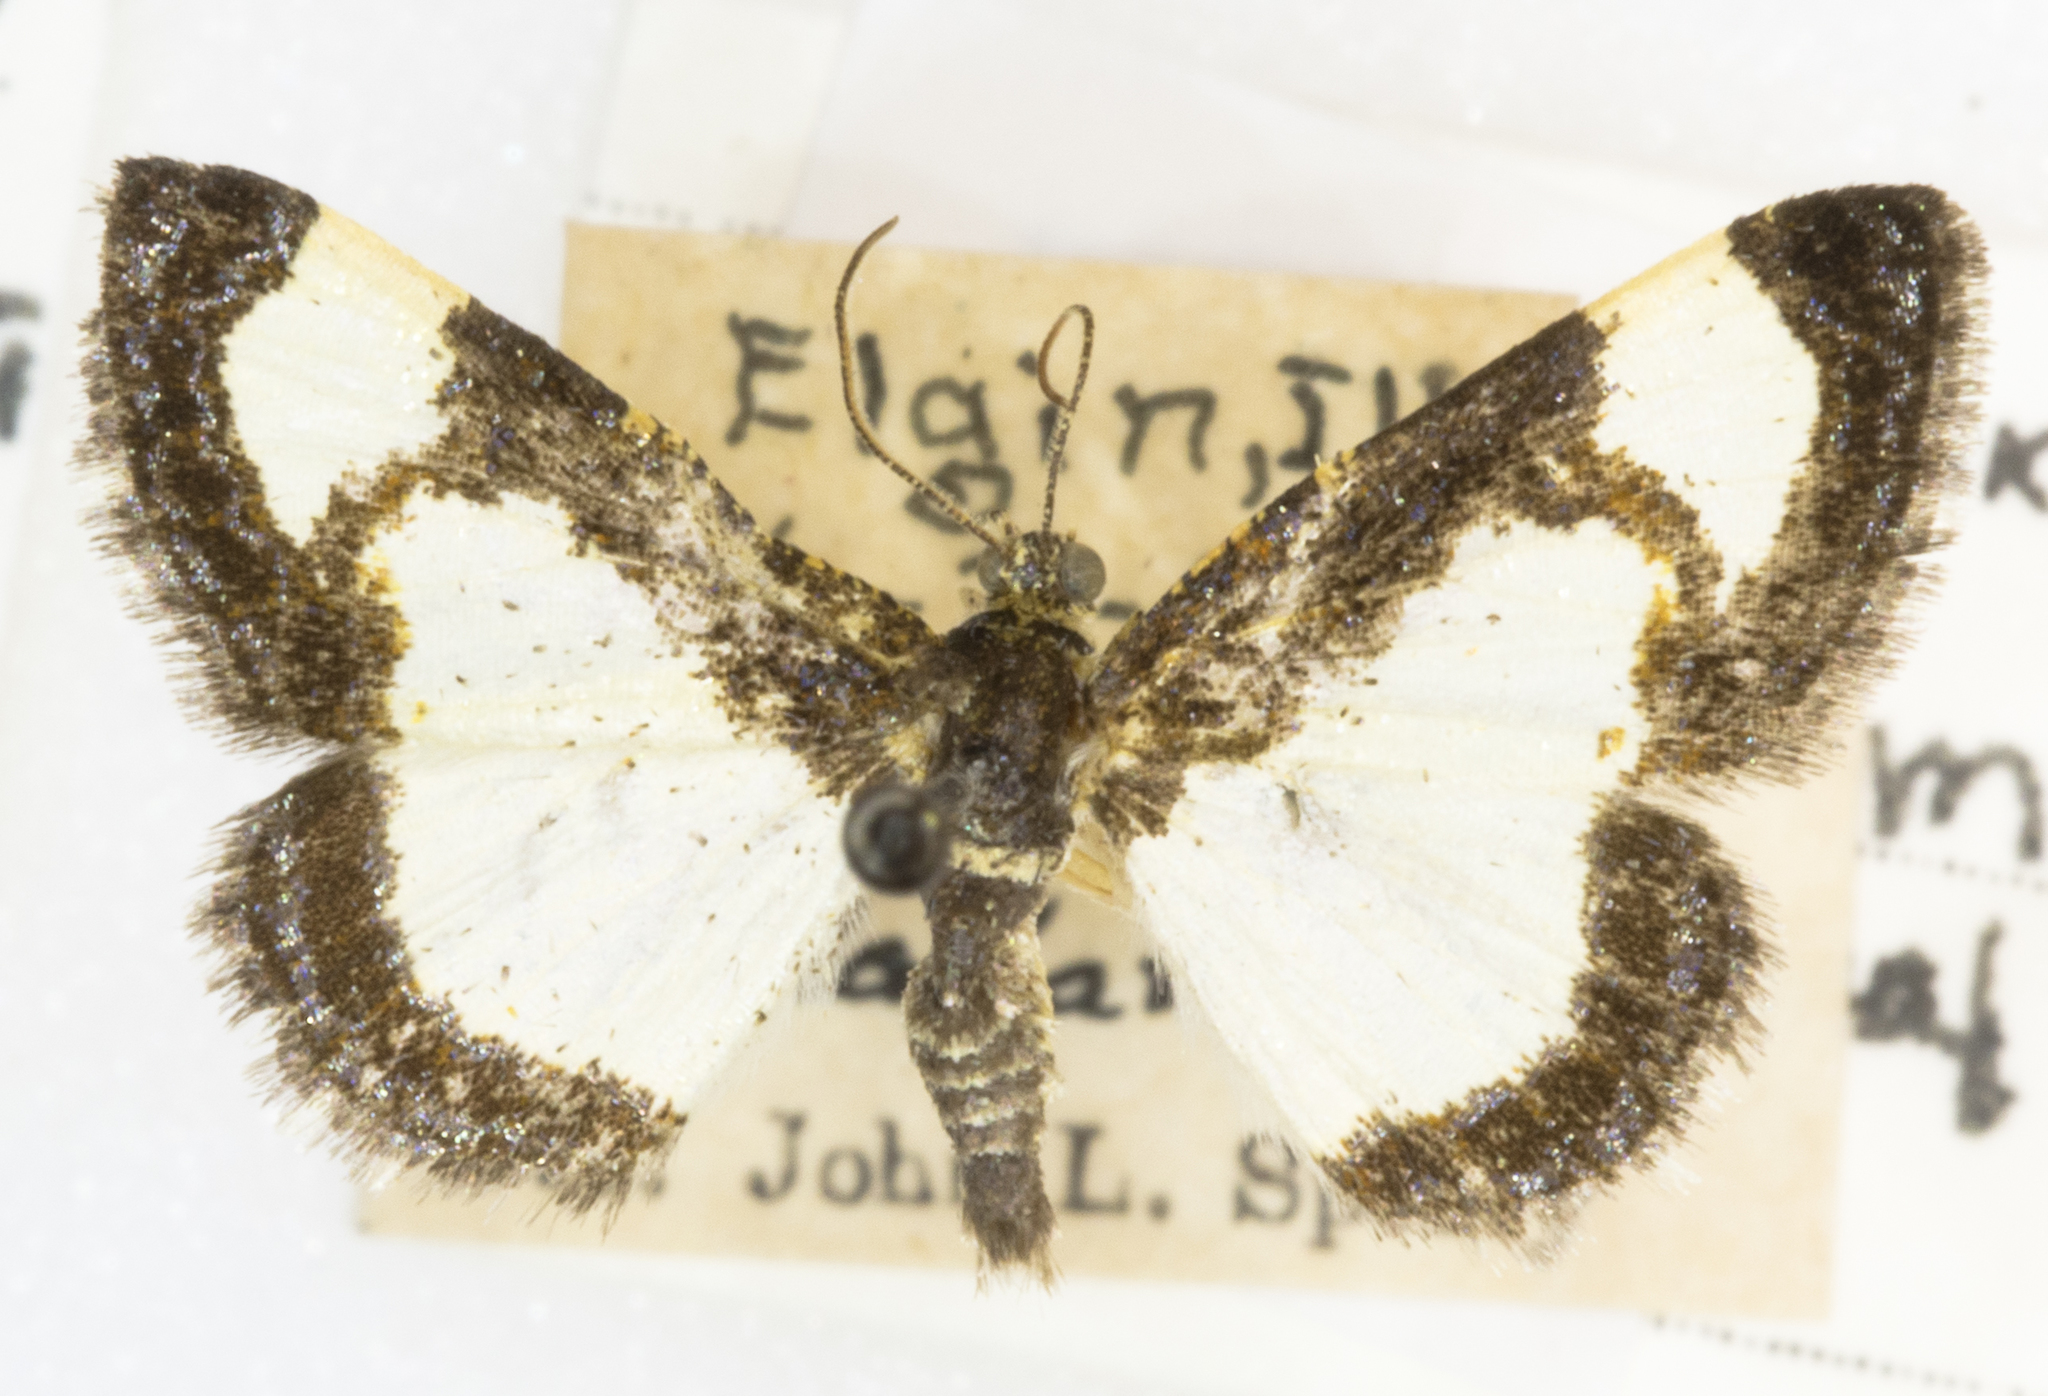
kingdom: Animalia
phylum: Arthropoda
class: Insecta
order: Lepidoptera
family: Geometridae
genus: Heliomata
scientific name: Heliomata cycladata
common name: Common spring moth
